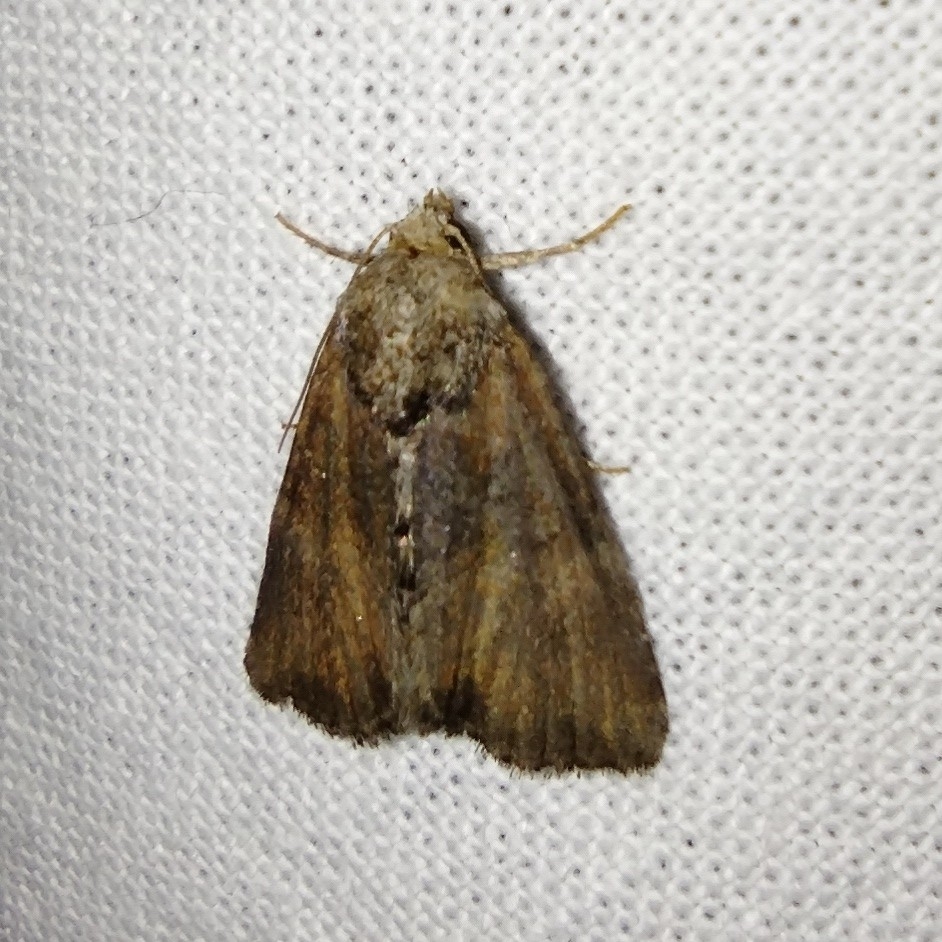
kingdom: Animalia
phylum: Arthropoda
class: Insecta
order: Lepidoptera
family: Noctuidae
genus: Mesoligia
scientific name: Mesoligia furuncula
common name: Cloaked minor
